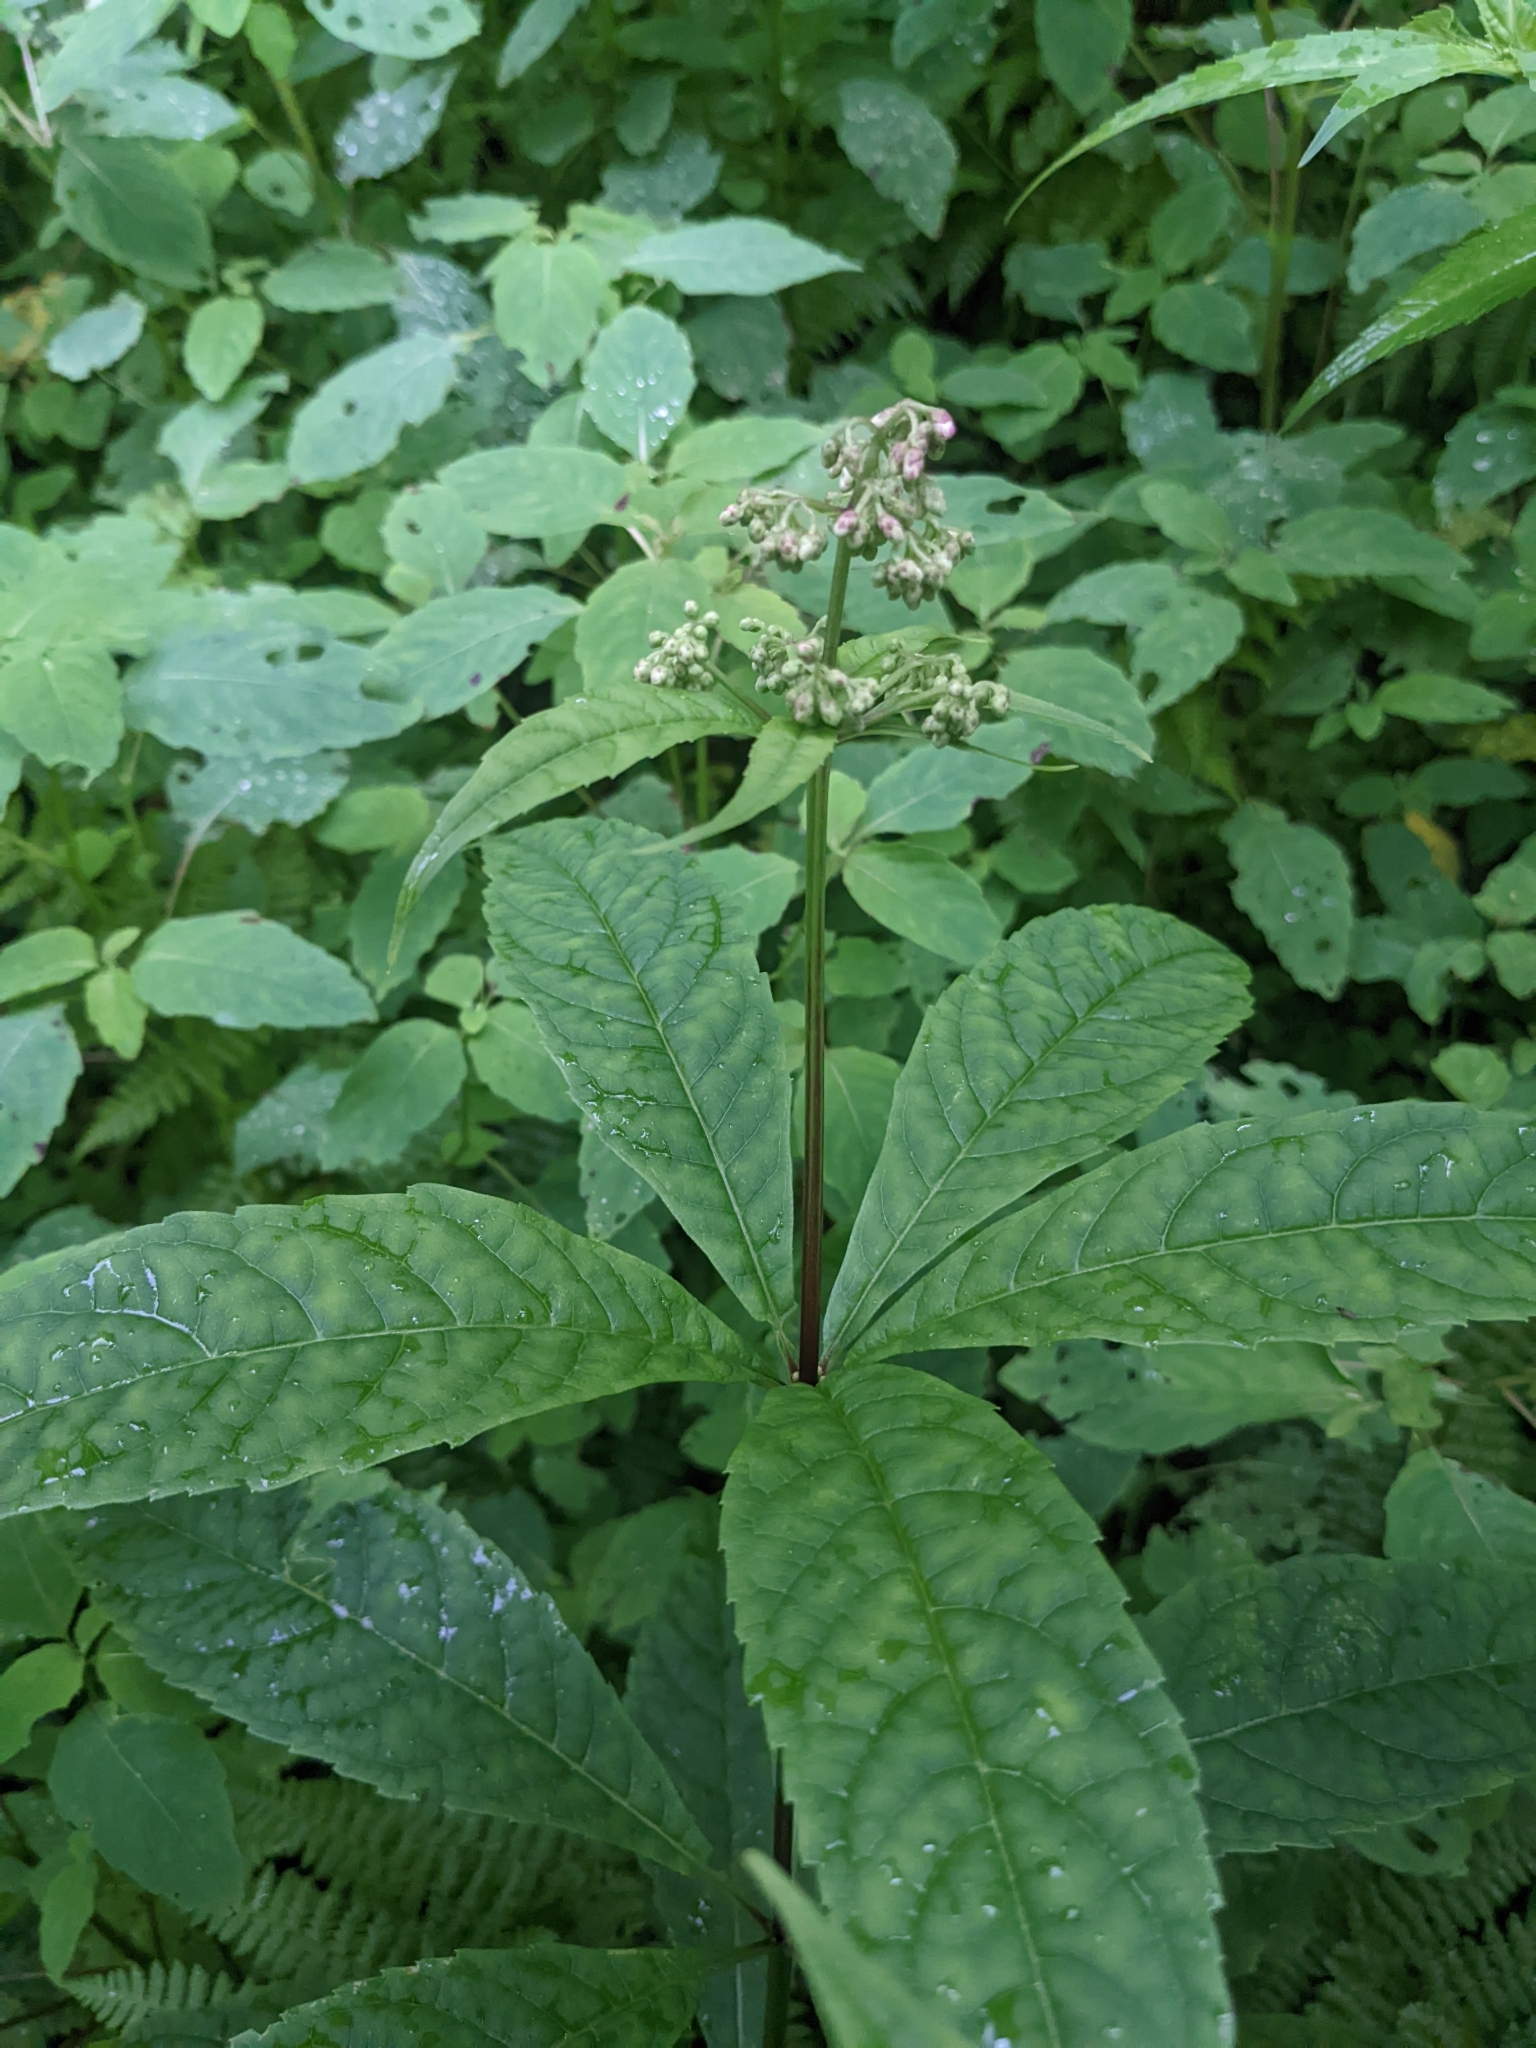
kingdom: Plantae
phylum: Tracheophyta
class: Magnoliopsida
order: Asterales
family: Asteraceae
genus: Eutrochium
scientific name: Eutrochium purpureum
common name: Gravelroot
